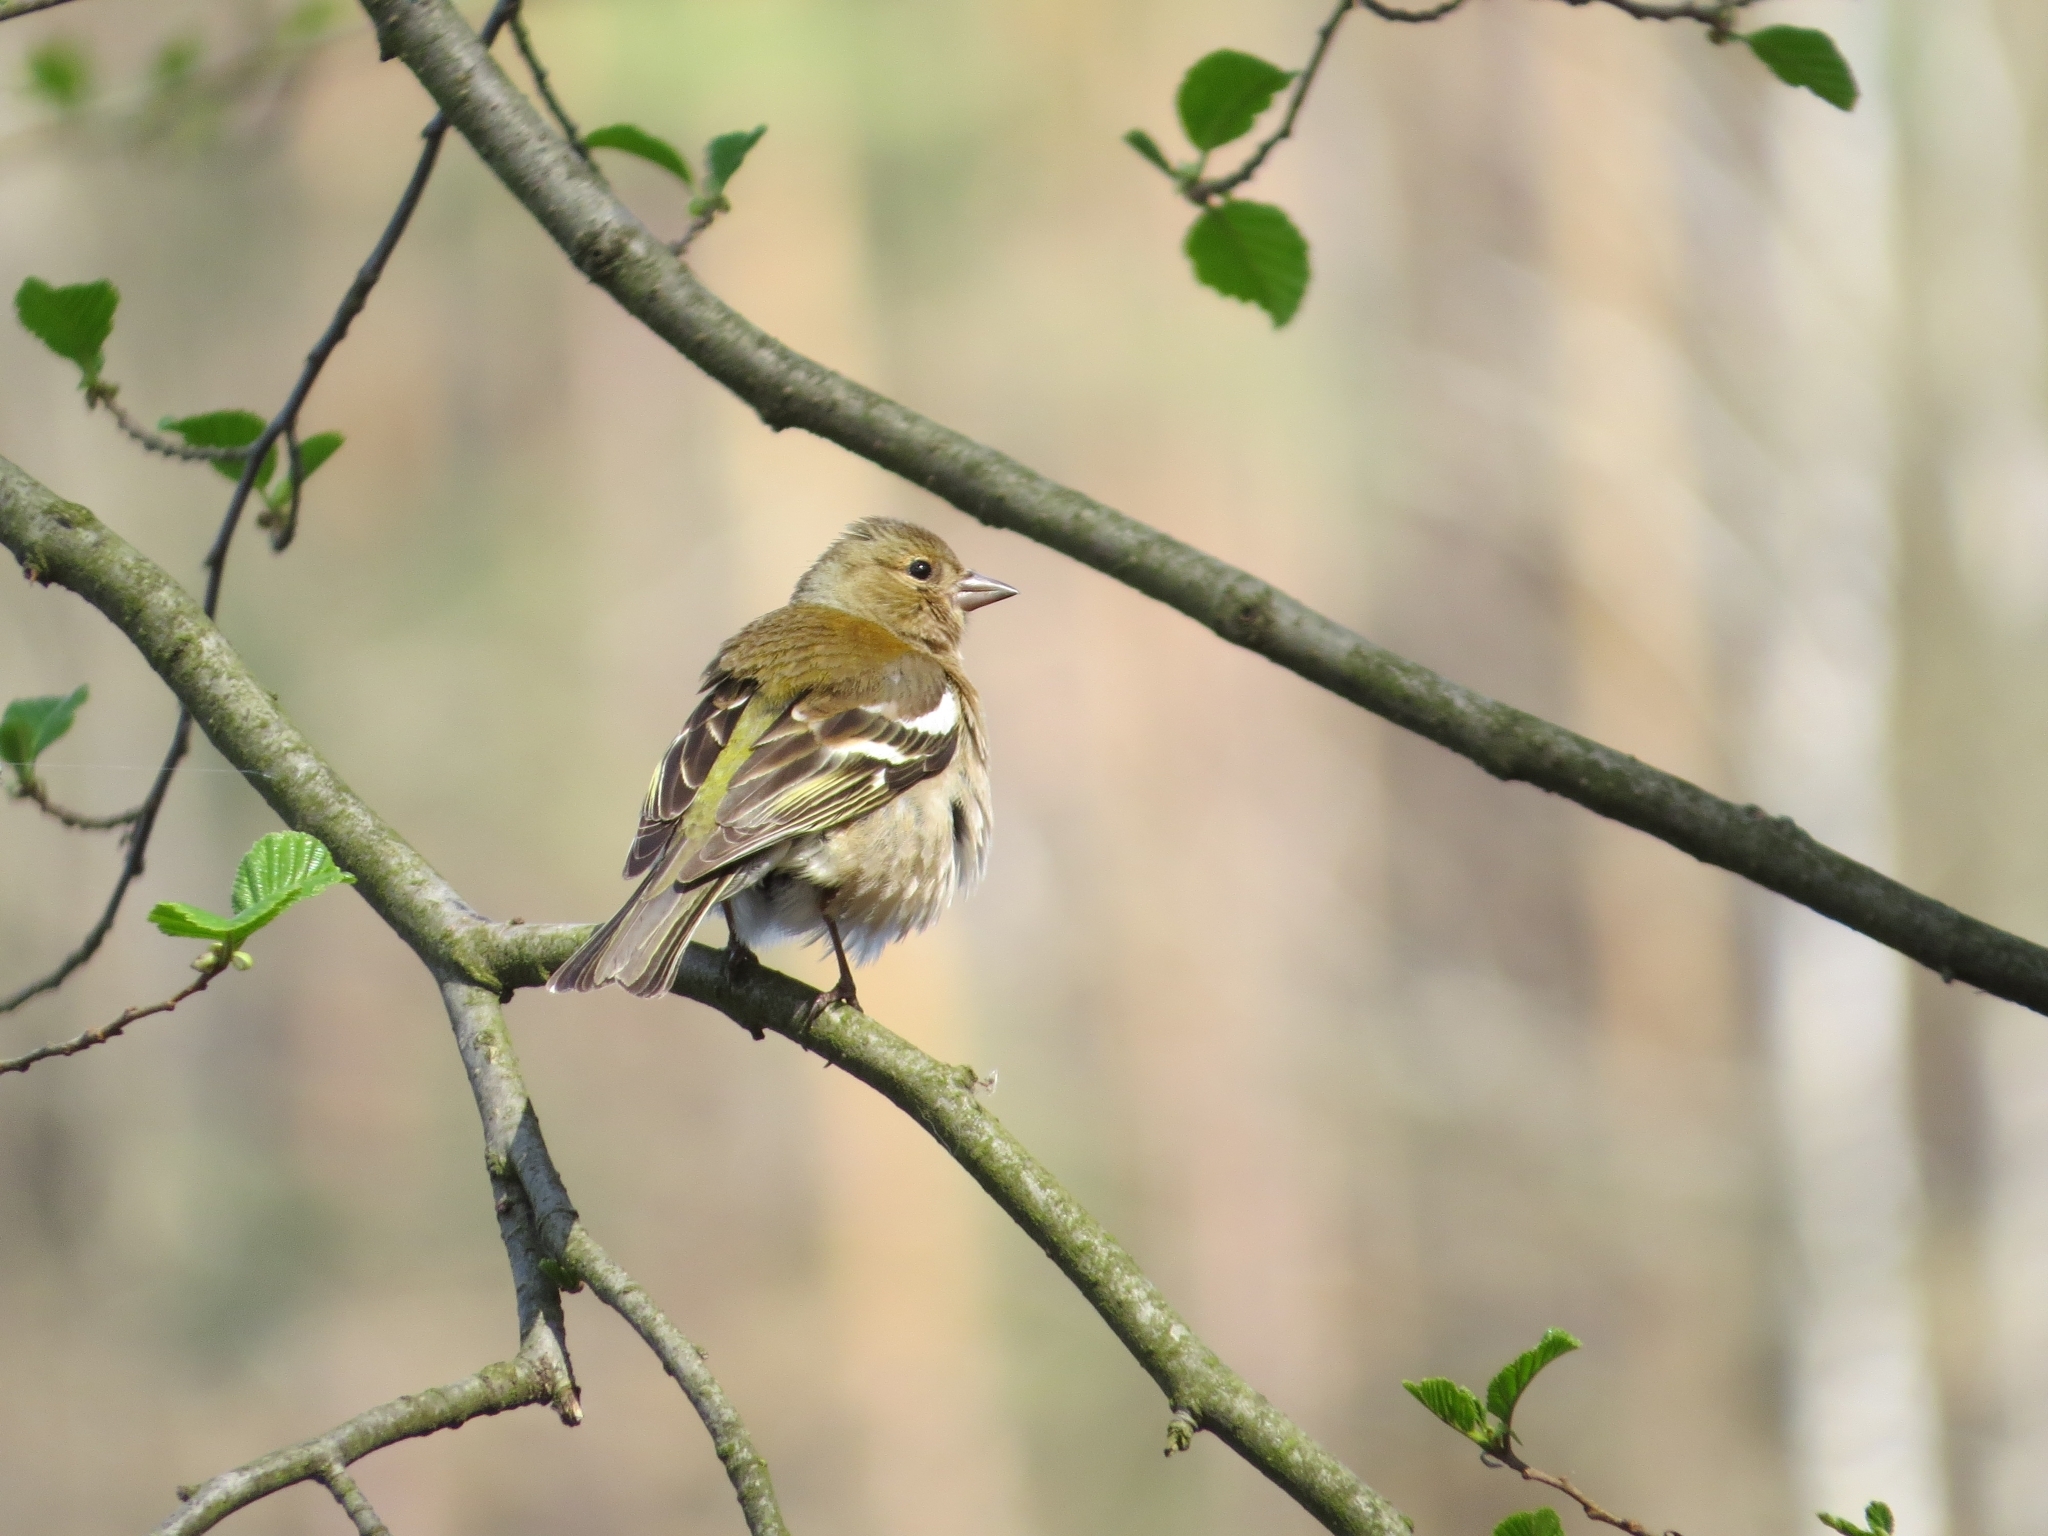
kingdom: Animalia
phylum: Chordata
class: Aves
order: Passeriformes
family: Fringillidae
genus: Fringilla
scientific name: Fringilla coelebs
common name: Common chaffinch
